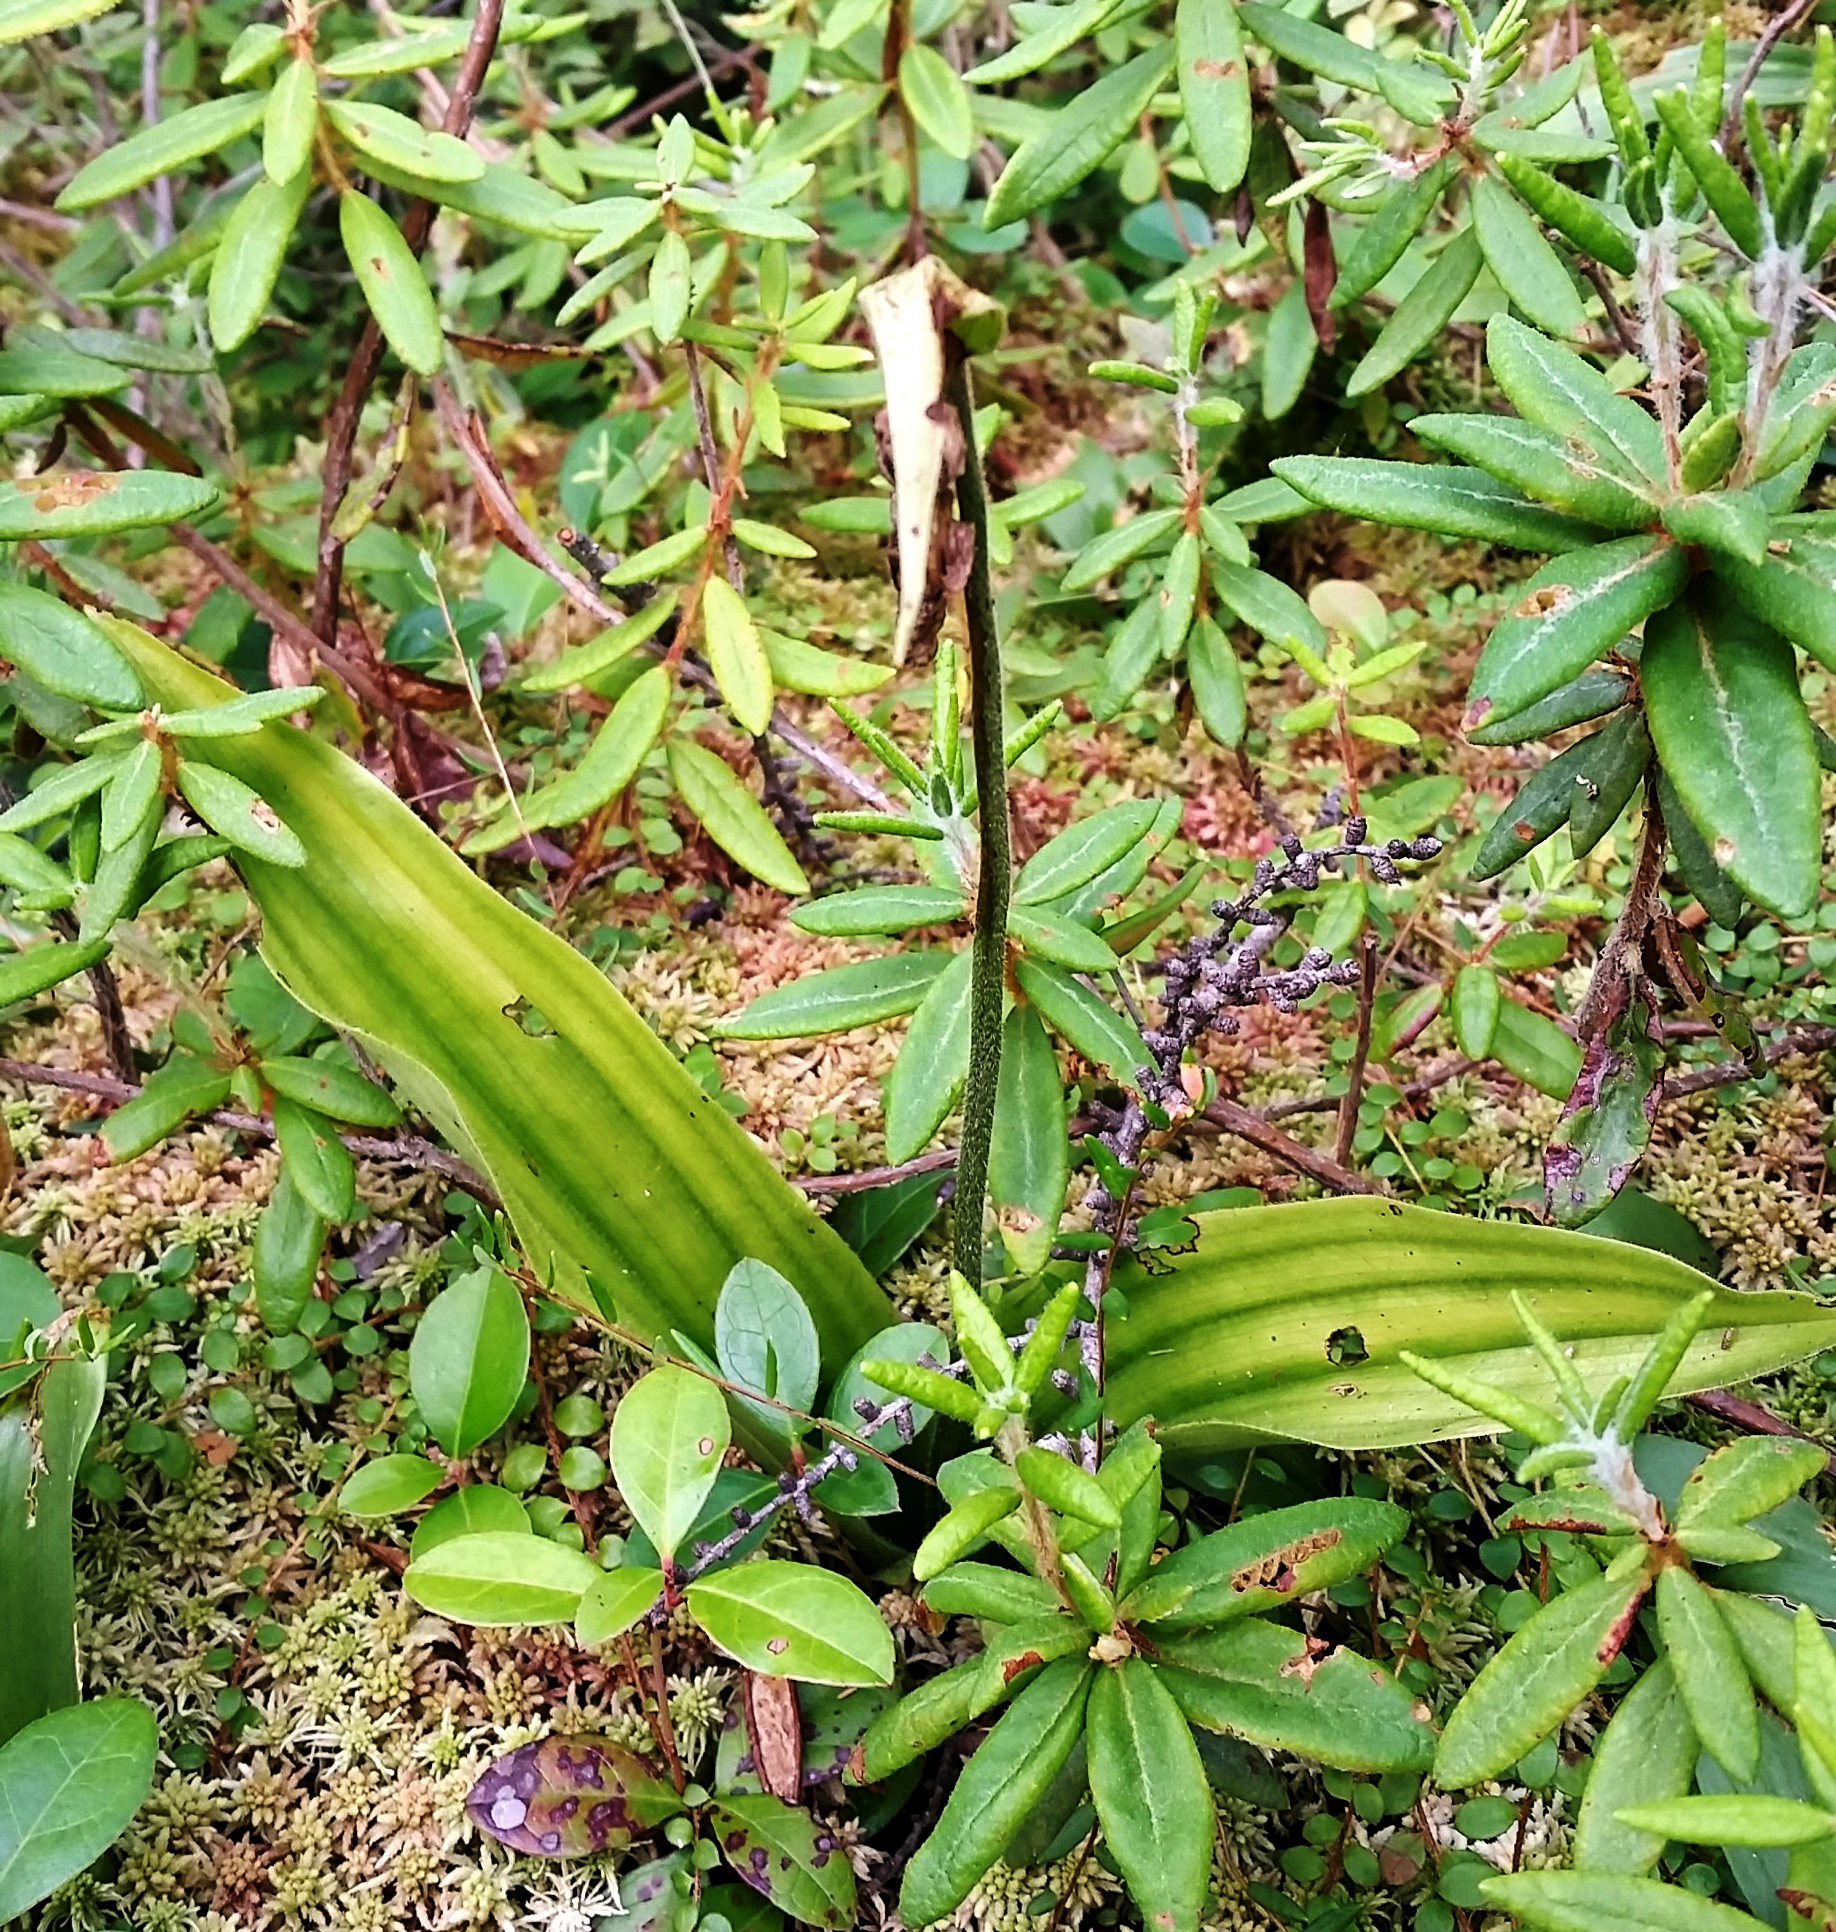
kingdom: Plantae
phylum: Tracheophyta
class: Liliopsida
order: Asparagales
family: Orchidaceae
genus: Cypripedium
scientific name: Cypripedium acaule
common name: Pink lady's-slipper
